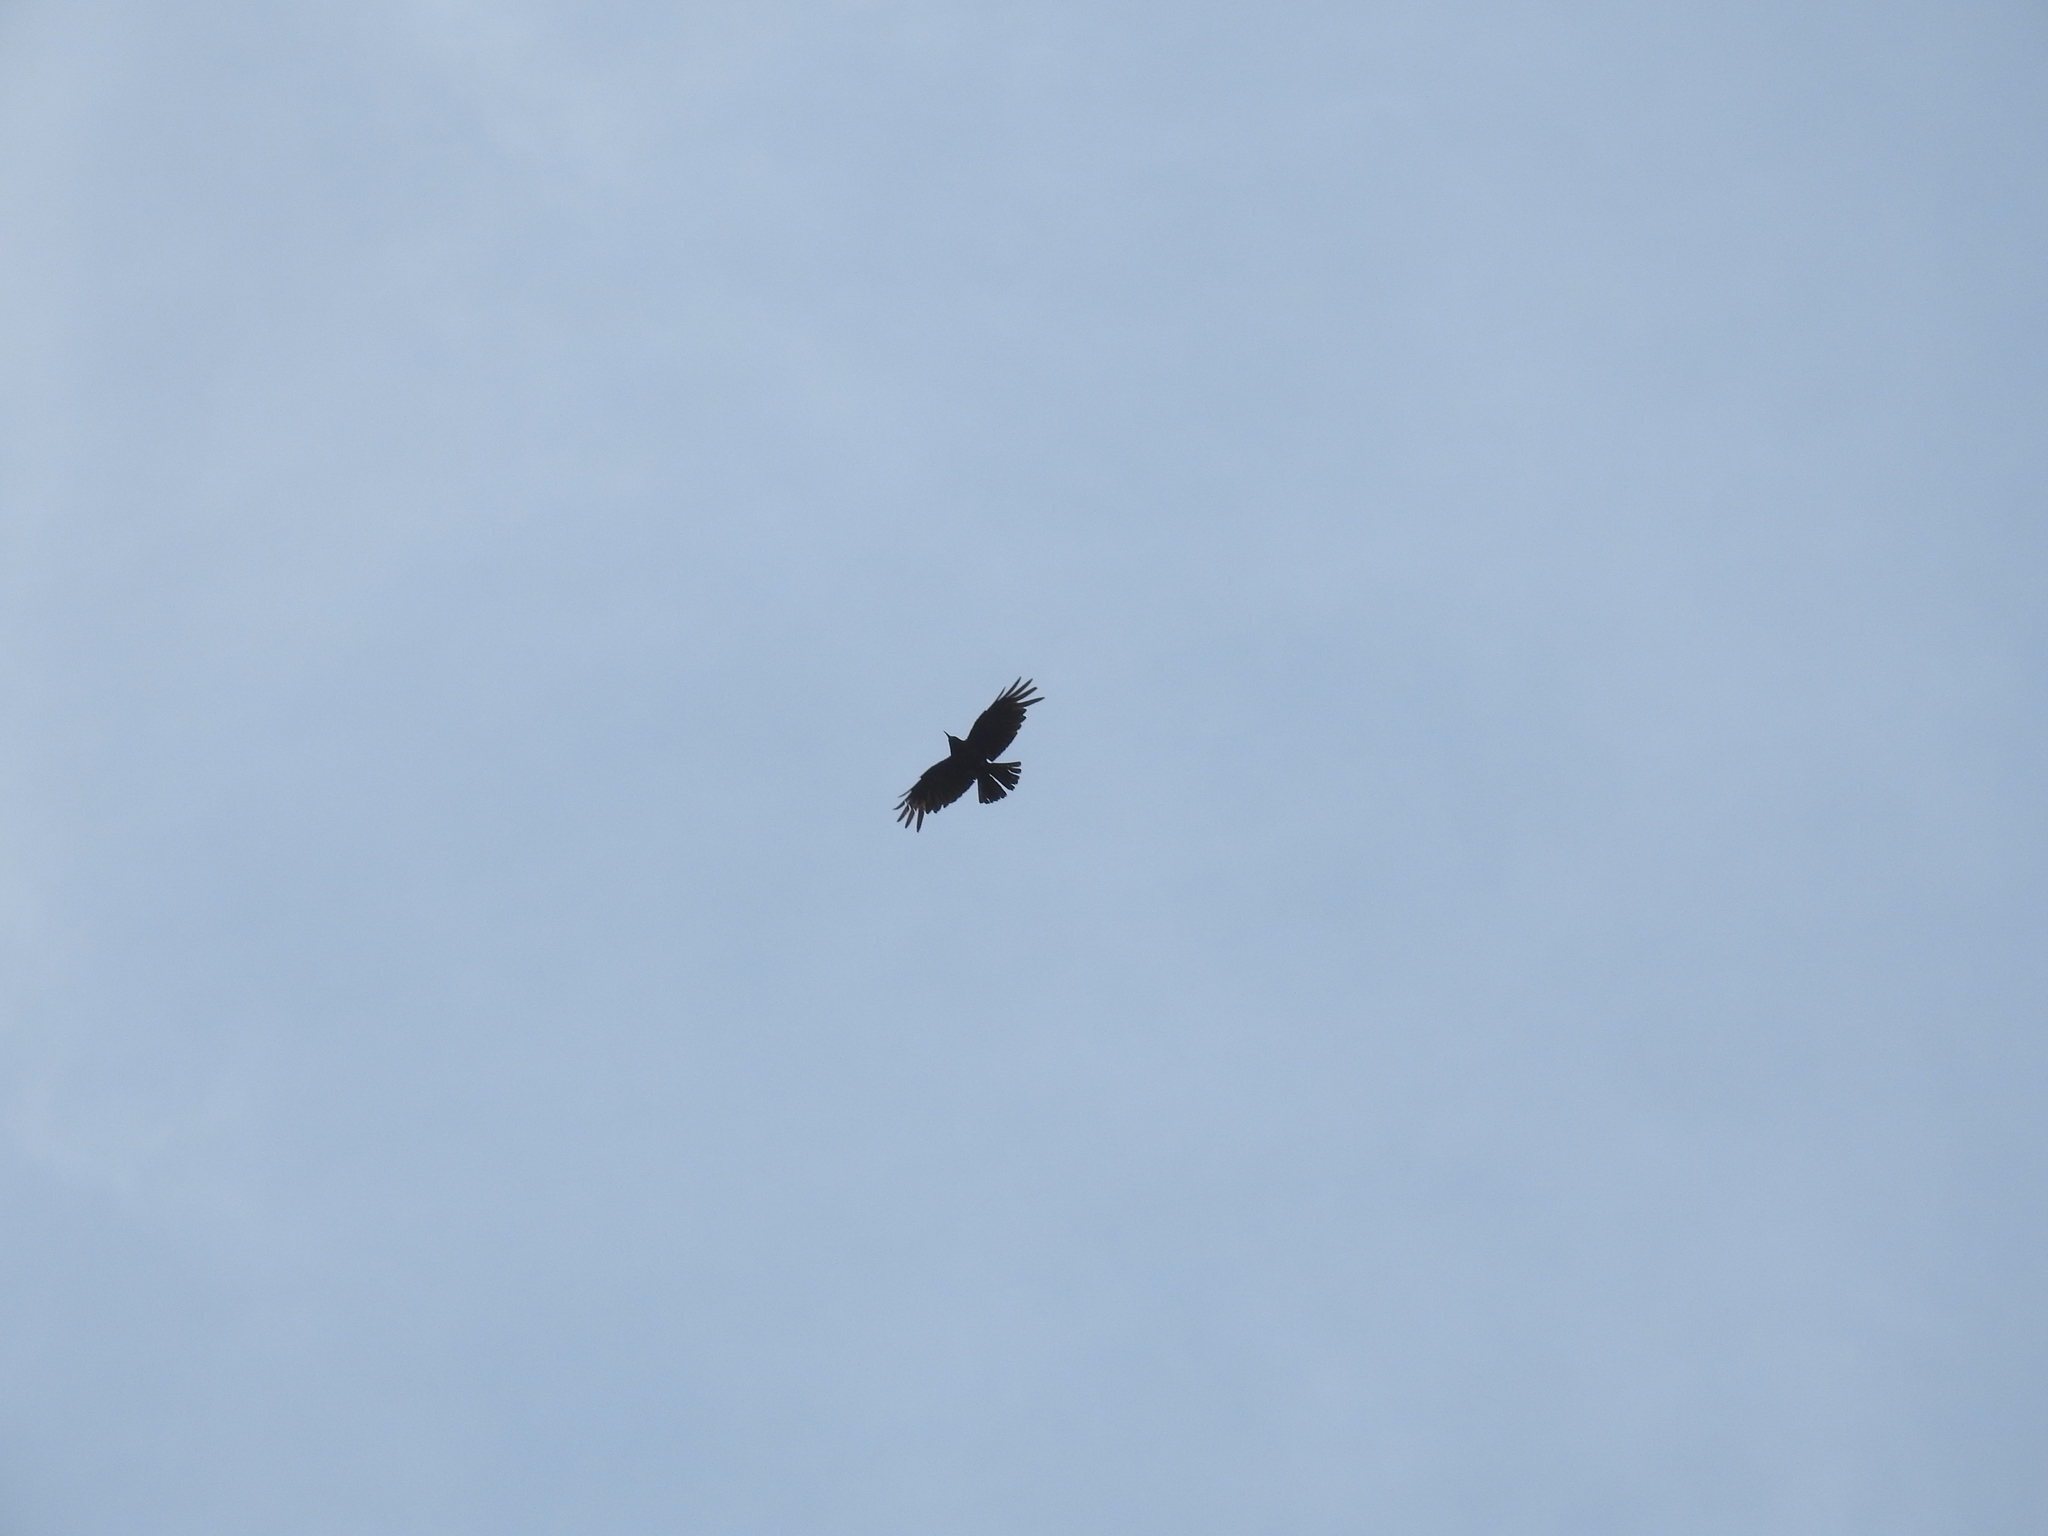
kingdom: Animalia
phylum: Chordata
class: Aves
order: Passeriformes
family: Corvidae
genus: Pyrrhocorax
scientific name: Pyrrhocorax pyrrhocorax
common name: Red-billed chough
